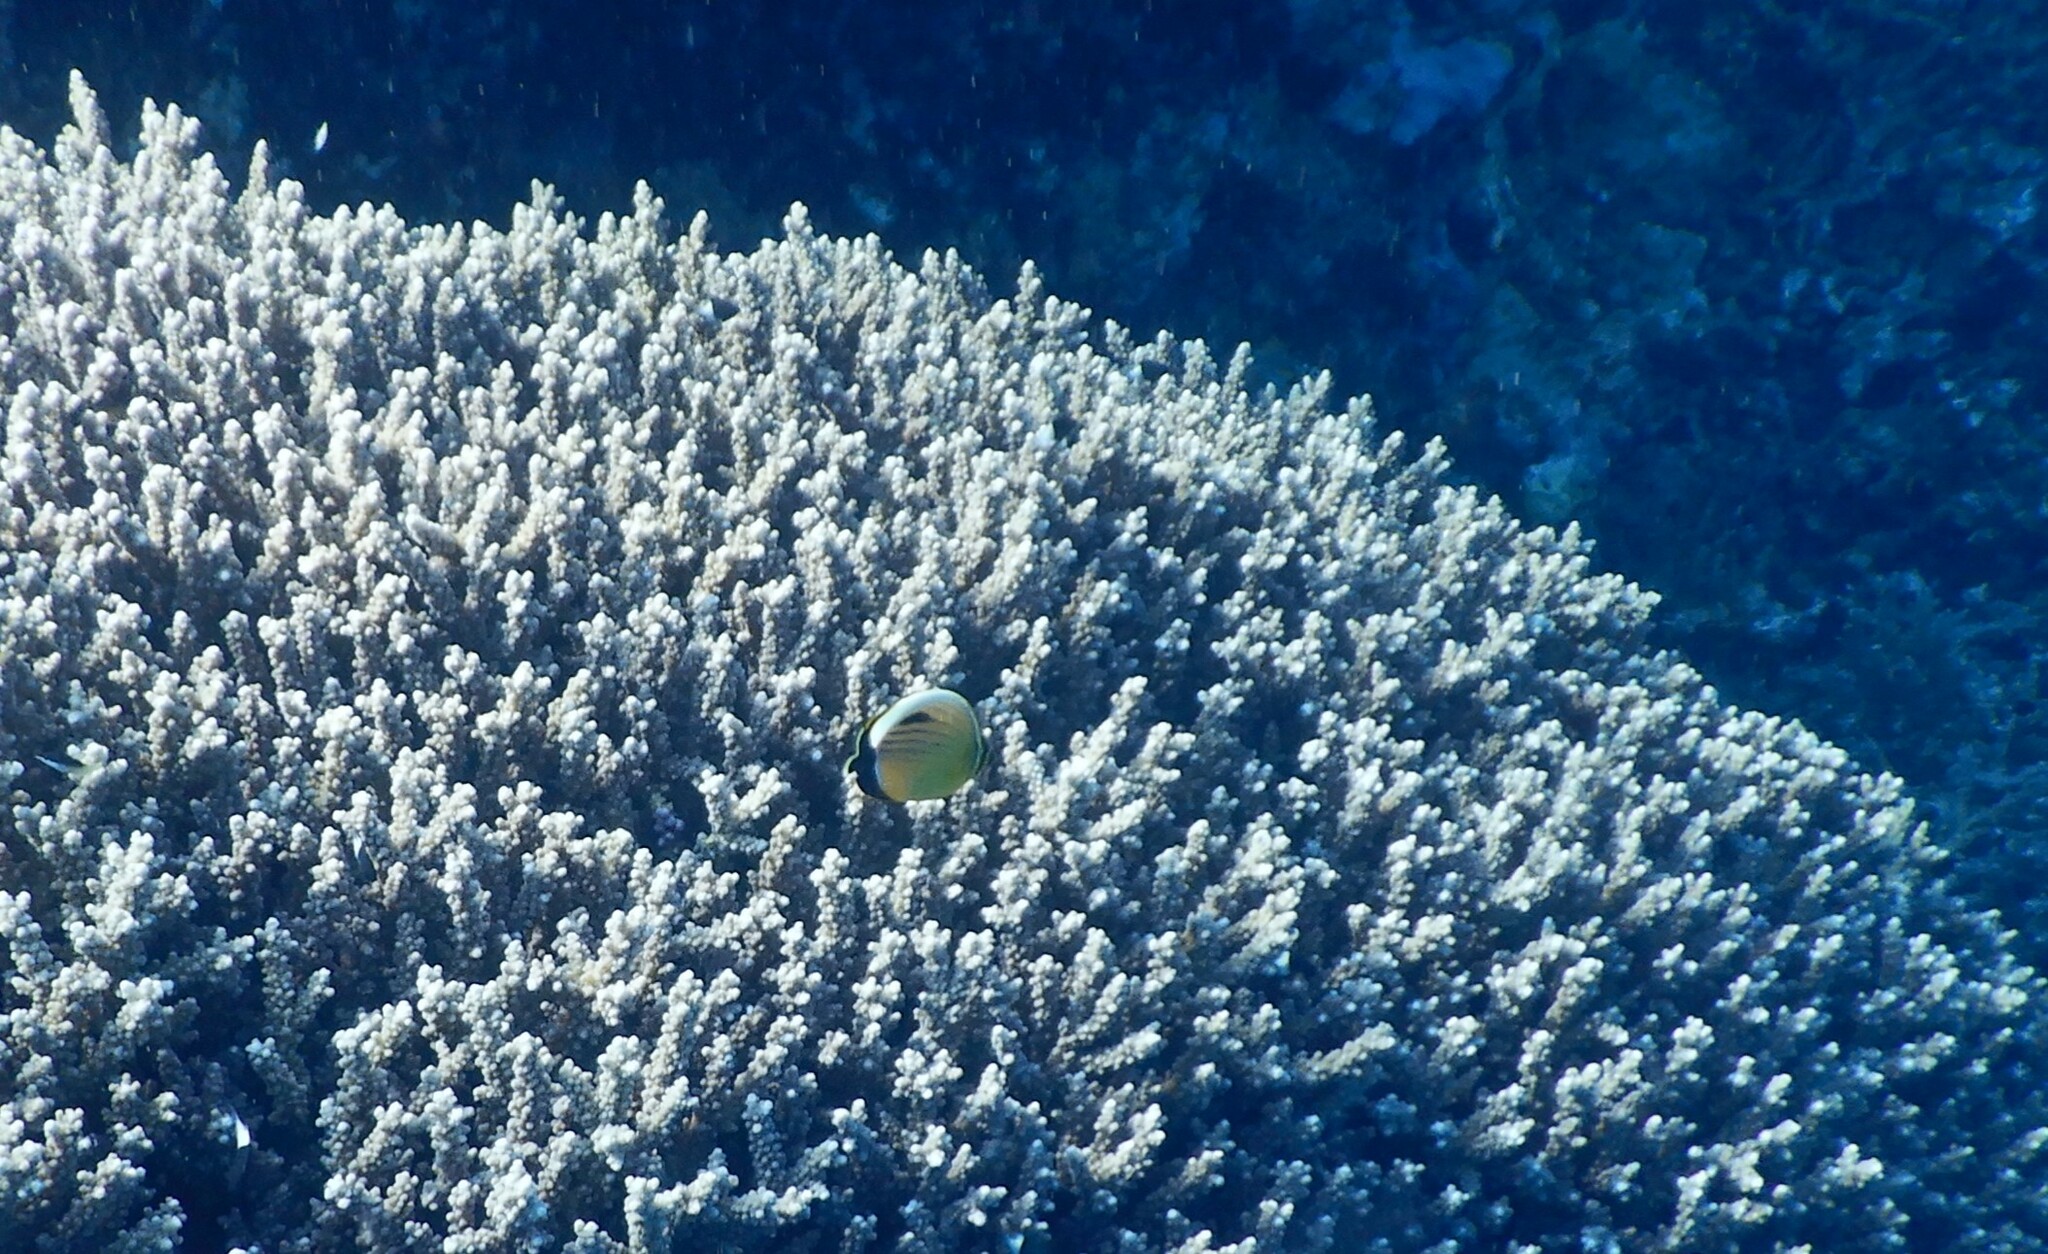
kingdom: Animalia
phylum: Chordata
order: Perciformes
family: Chaetodontidae
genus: Chaetodon
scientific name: Chaetodon austriacus
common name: Exquisite butterflyfish
